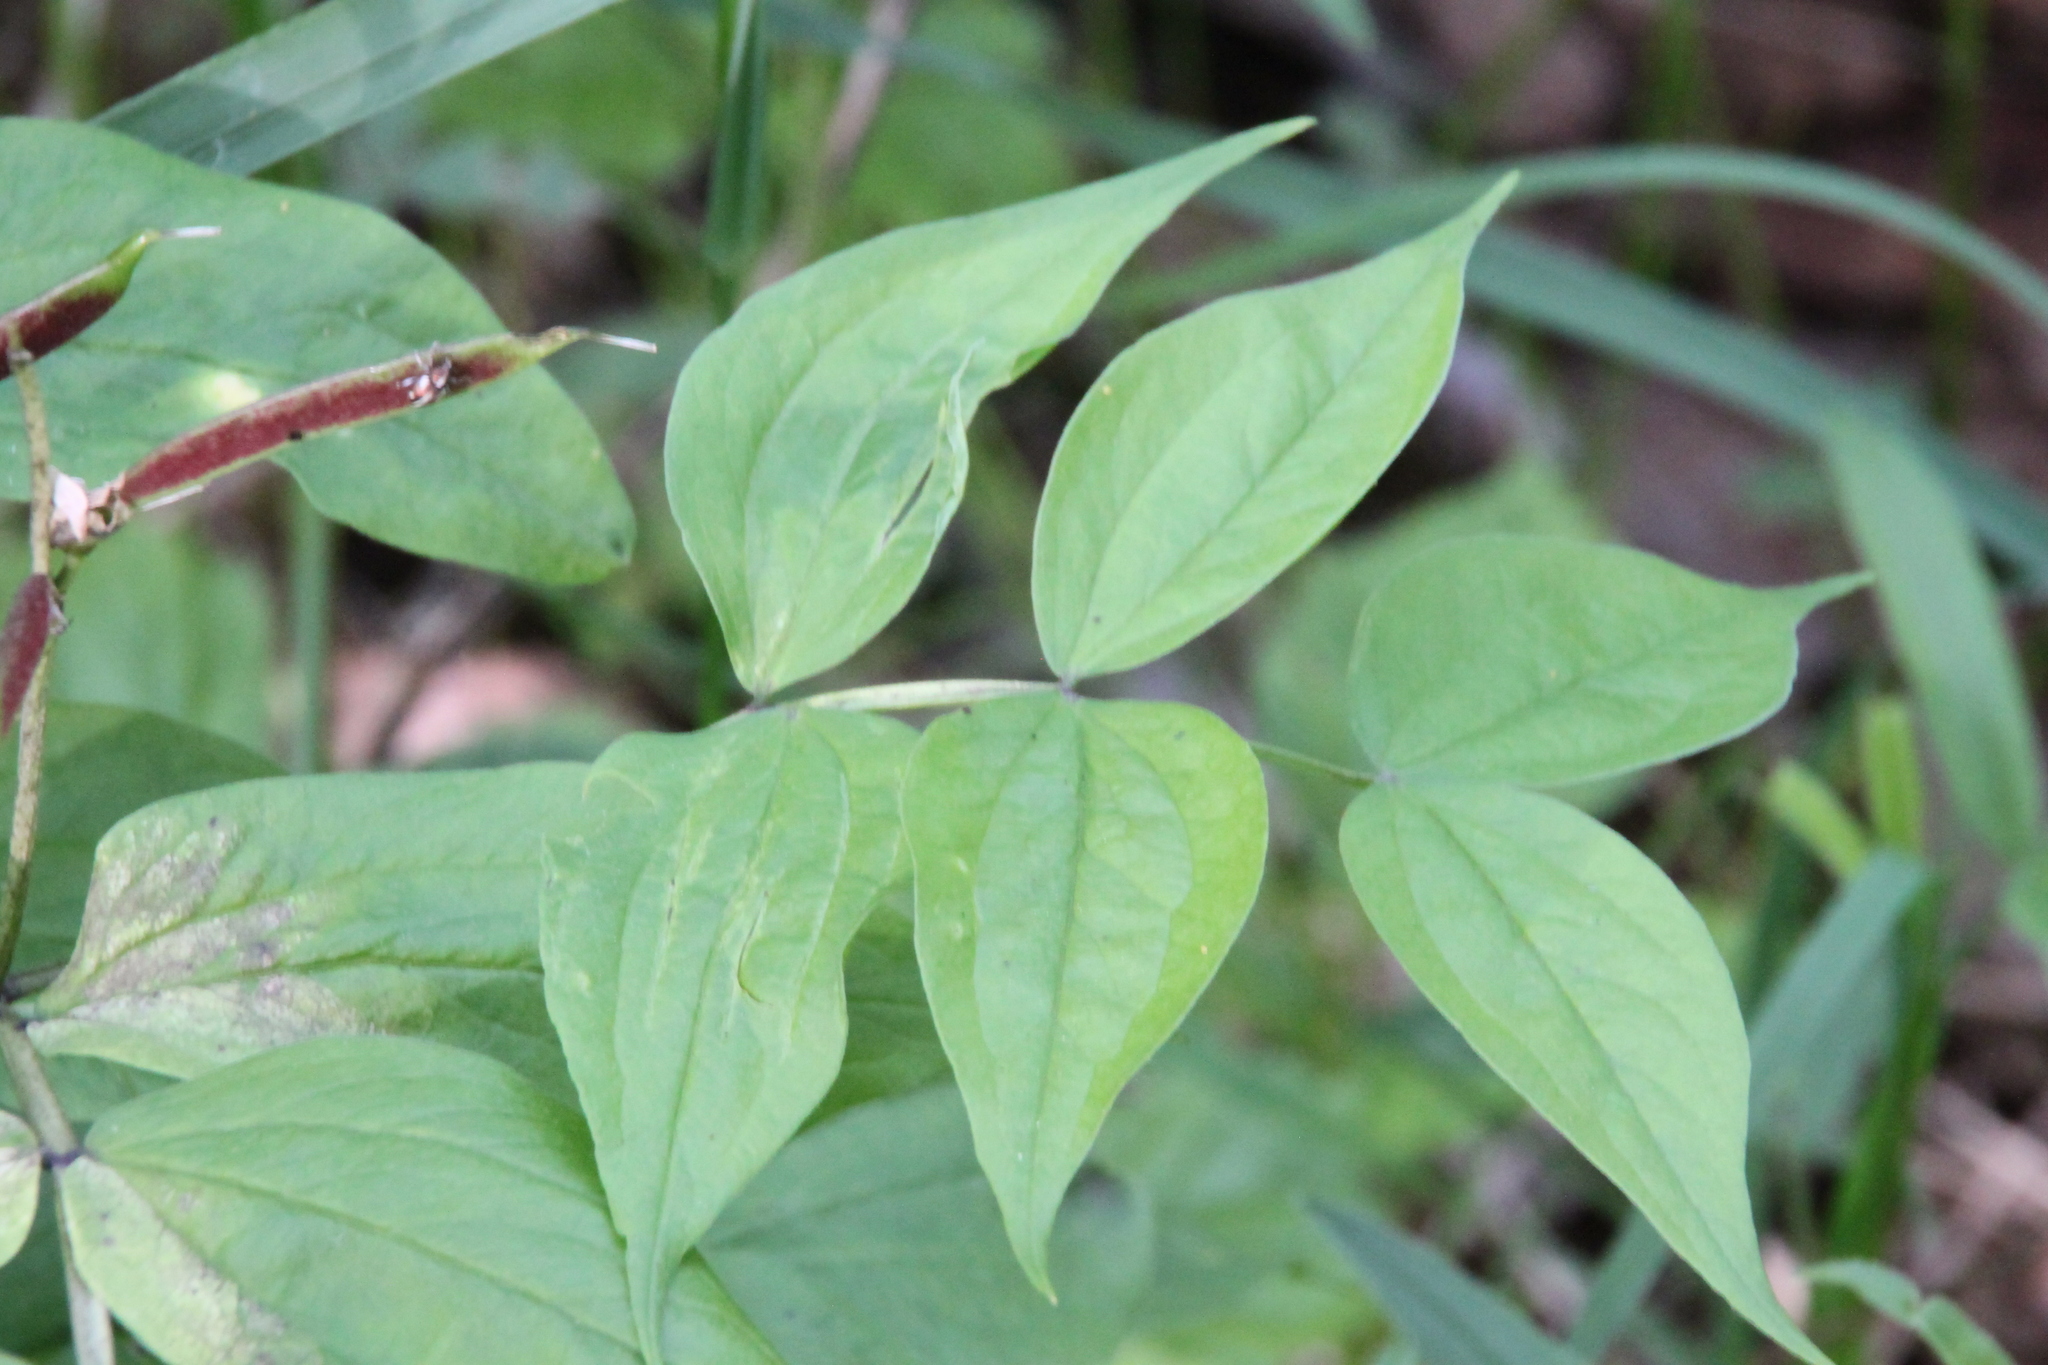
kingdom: Plantae
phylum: Tracheophyta
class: Magnoliopsida
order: Fabales
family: Fabaceae
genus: Lathyrus
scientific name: Lathyrus vernus
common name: Spring pea
